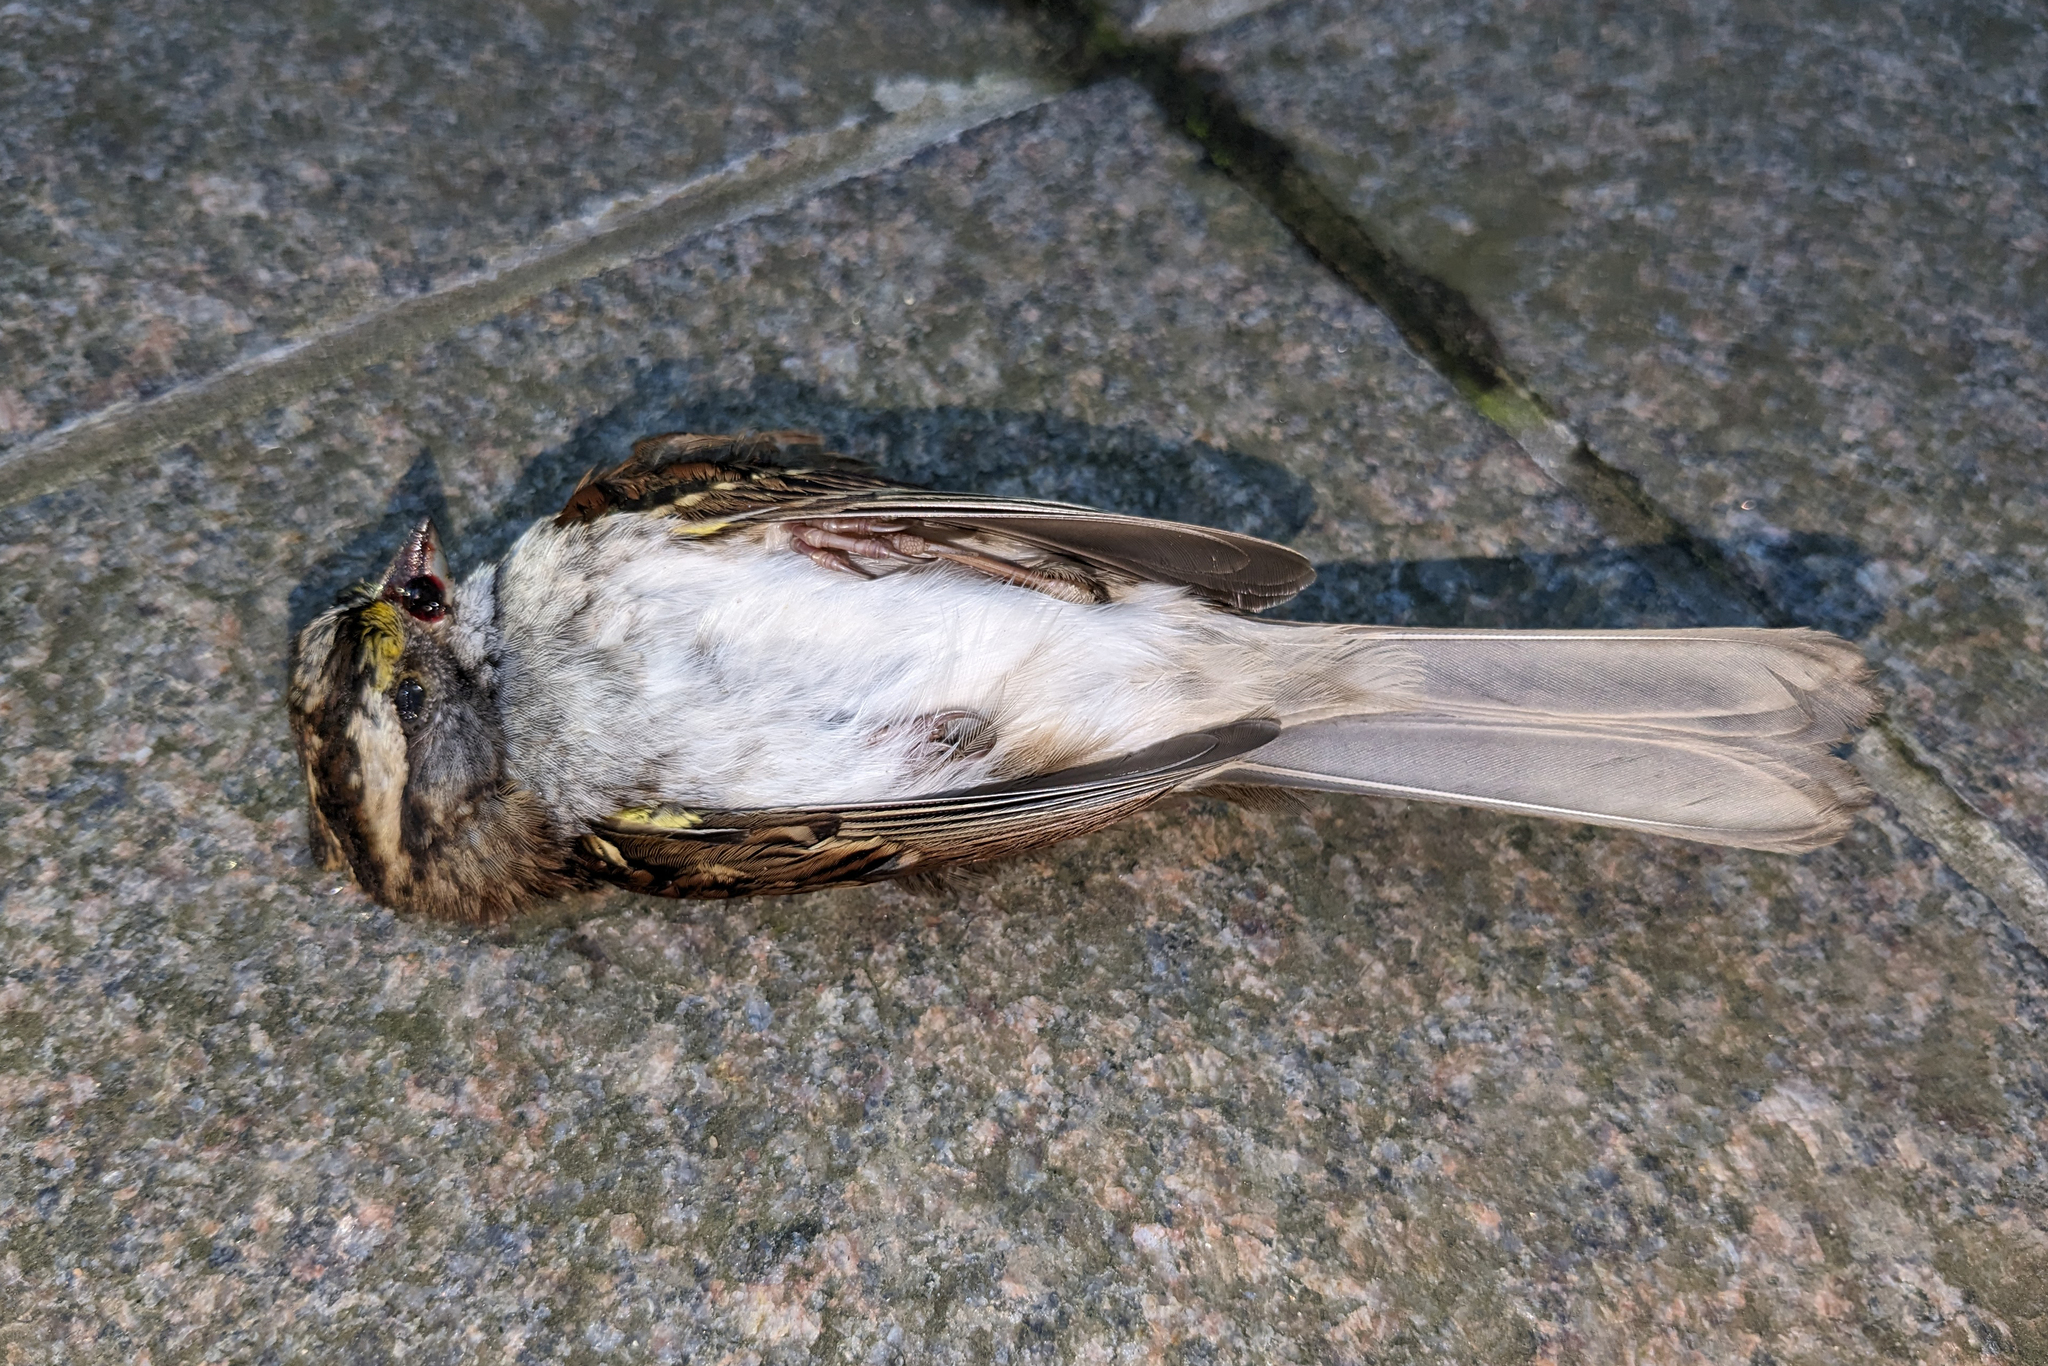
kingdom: Animalia
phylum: Chordata
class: Aves
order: Passeriformes
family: Passerellidae
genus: Zonotrichia
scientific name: Zonotrichia albicollis
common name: White-throated sparrow
